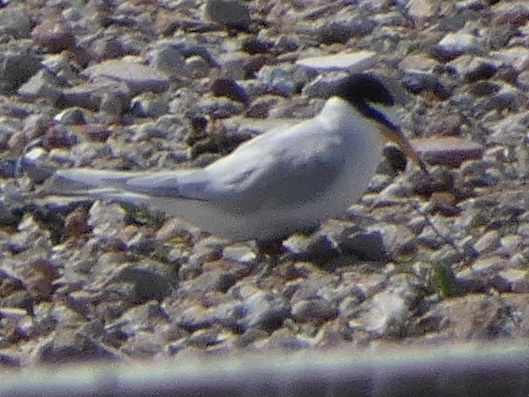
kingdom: Animalia
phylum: Chordata
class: Aves
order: Charadriiformes
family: Laridae
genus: Sternula
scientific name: Sternula albifrons
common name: Little tern
